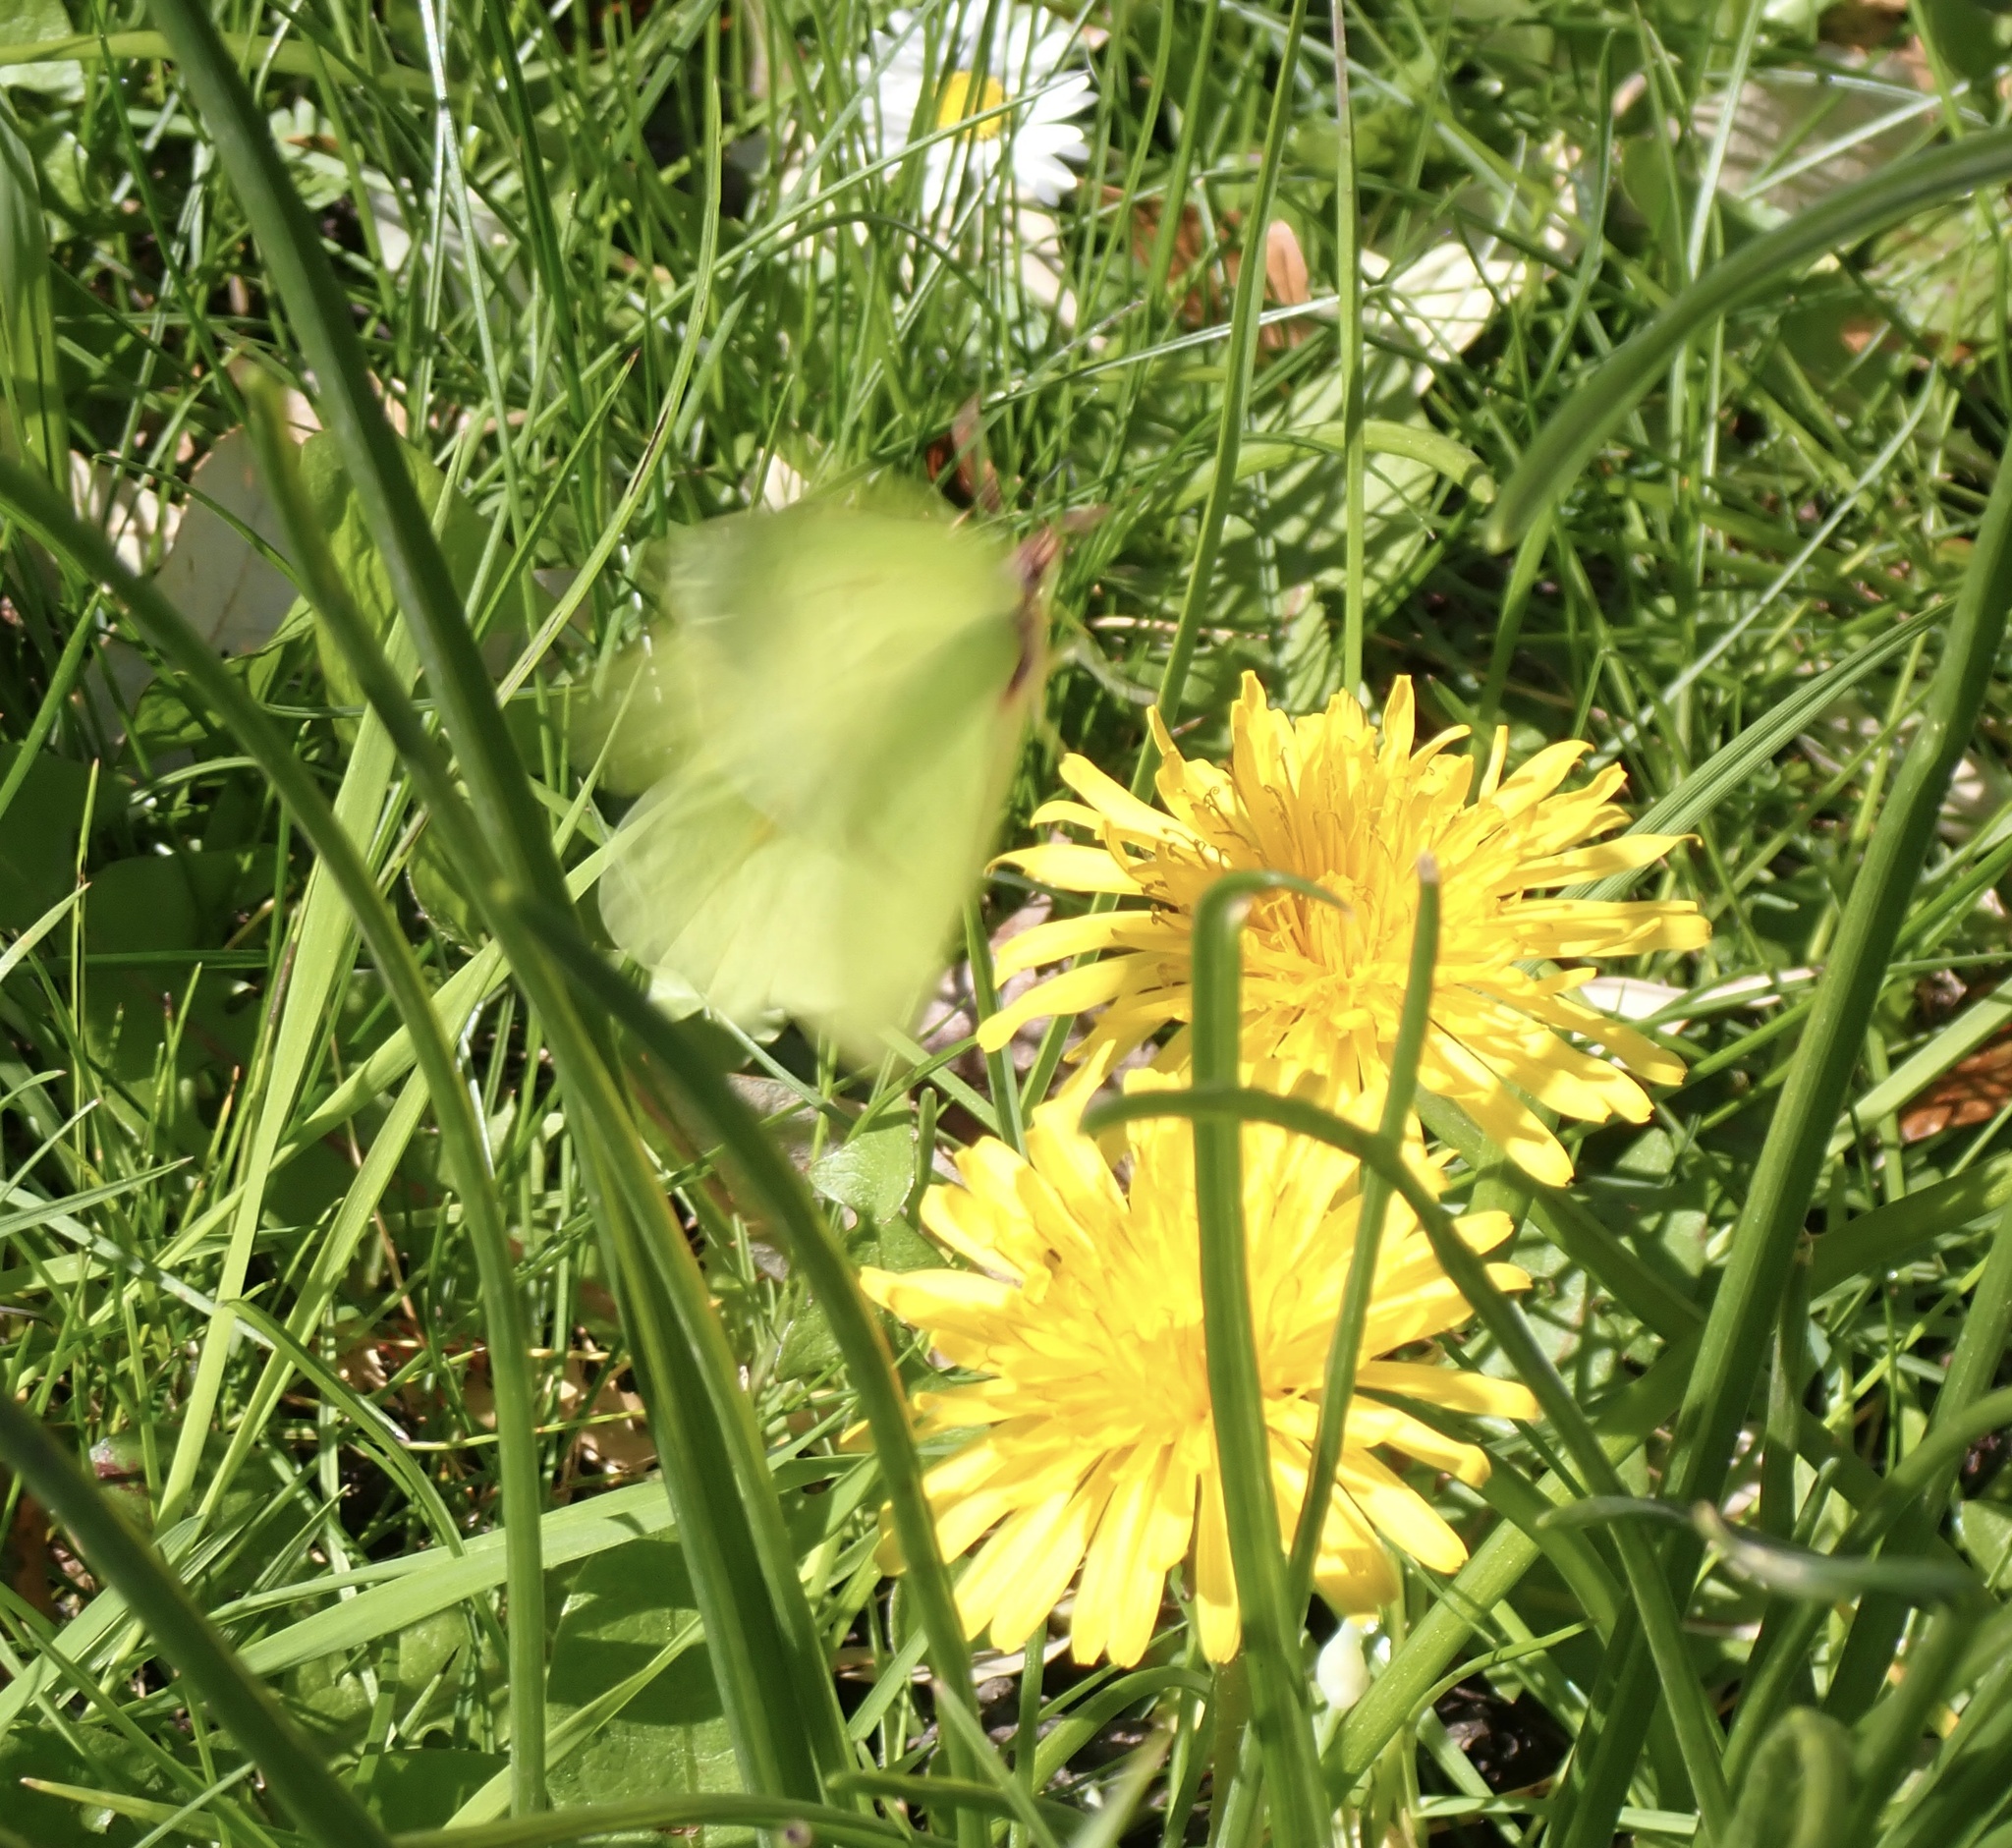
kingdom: Animalia
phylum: Arthropoda
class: Insecta
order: Lepidoptera
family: Pieridae
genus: Gonepteryx
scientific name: Gonepteryx rhamni
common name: Brimstone
